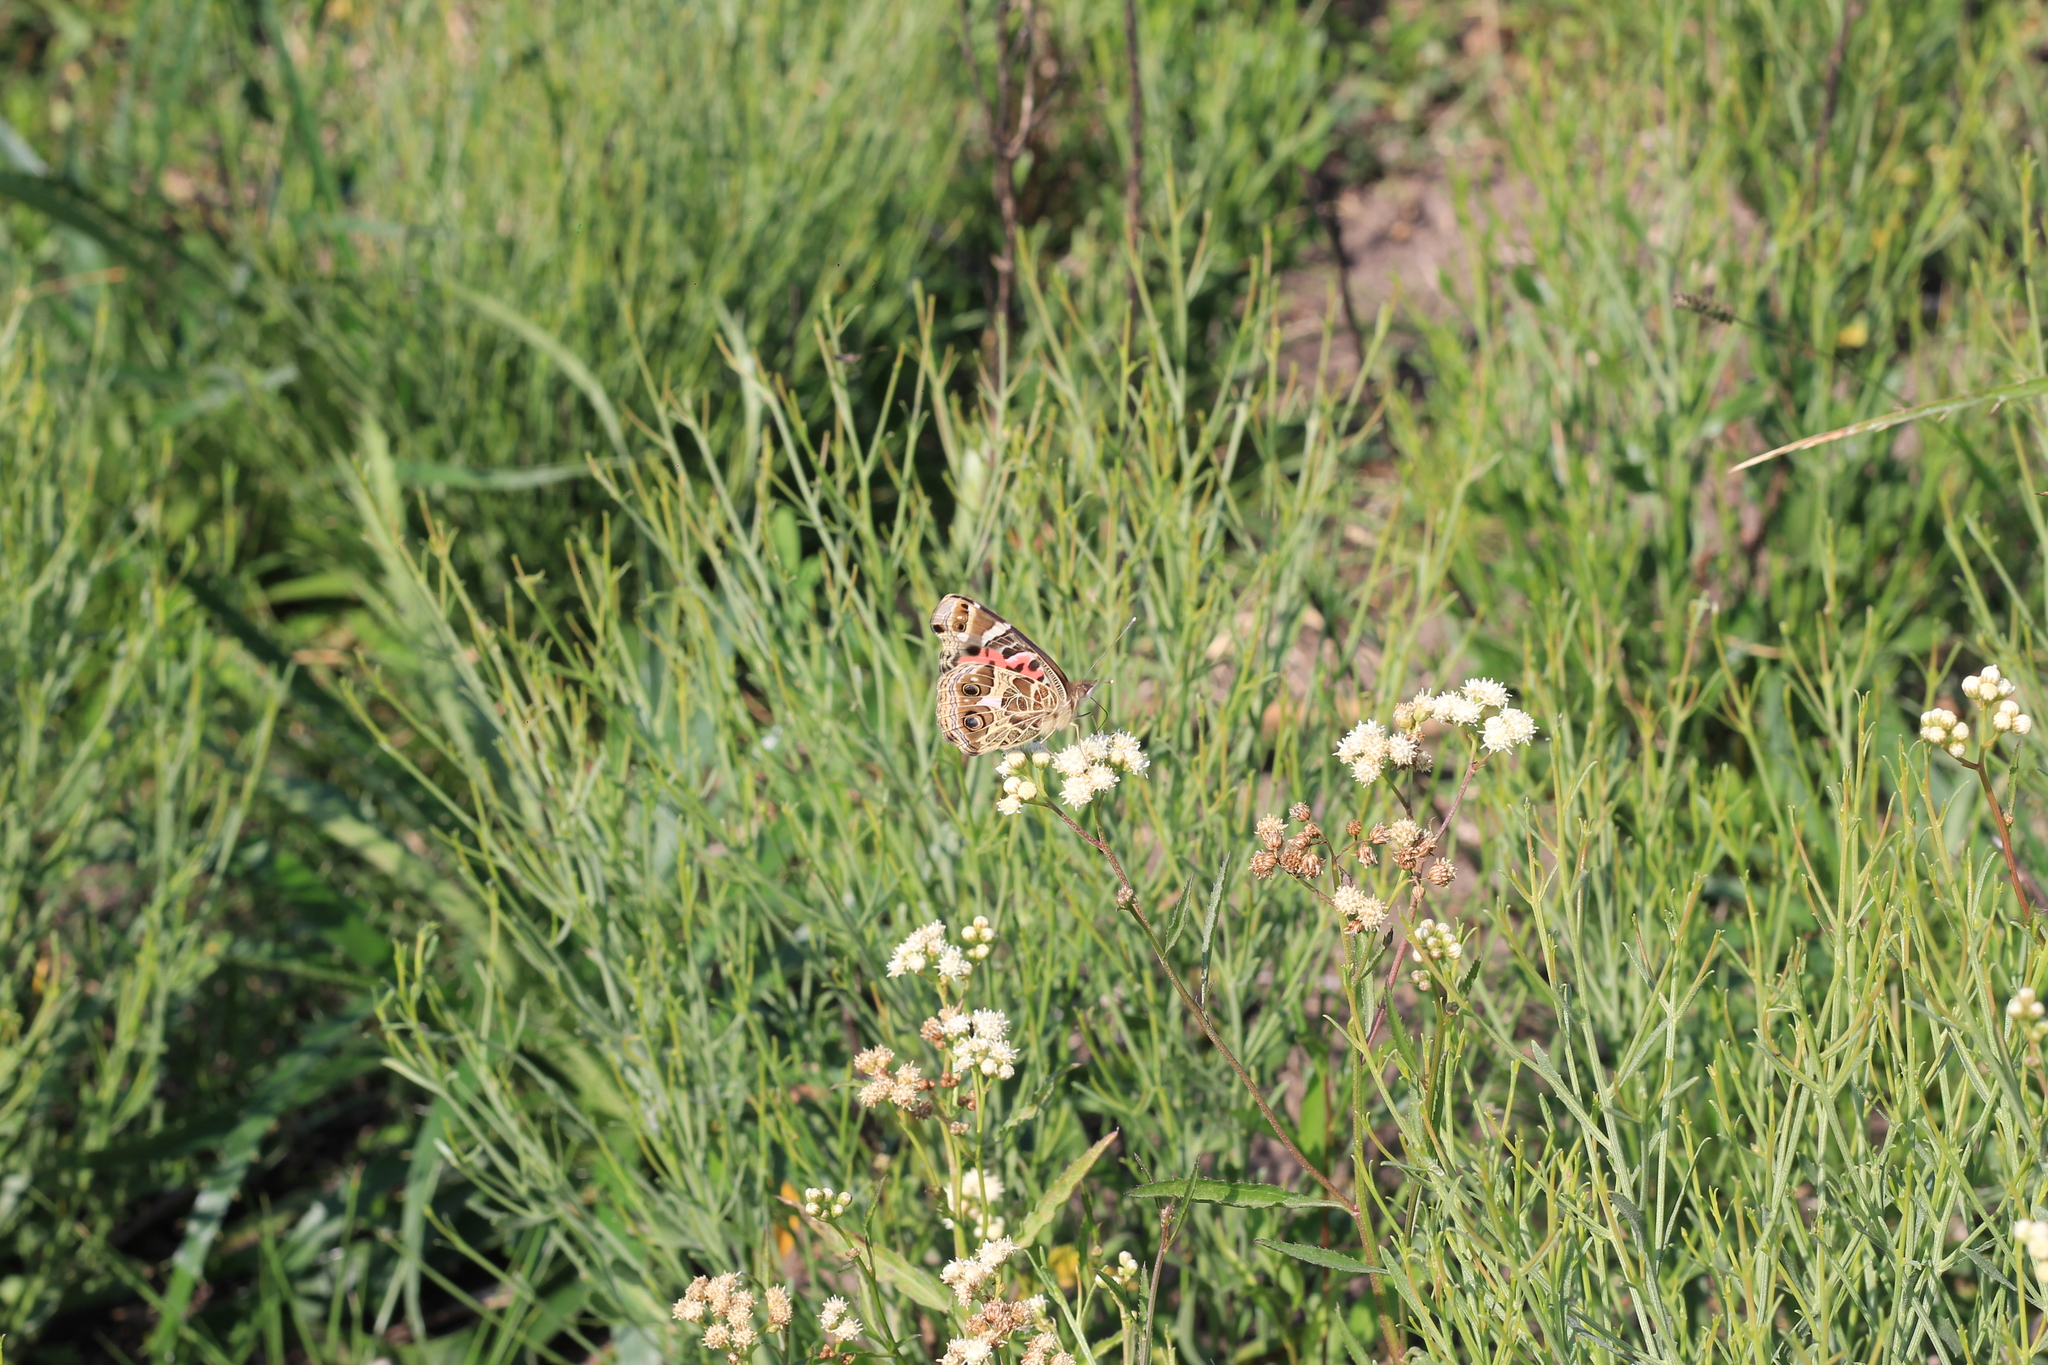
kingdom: Animalia
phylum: Arthropoda
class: Insecta
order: Lepidoptera
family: Nymphalidae
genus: Vanessa
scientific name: Vanessa braziliensis
